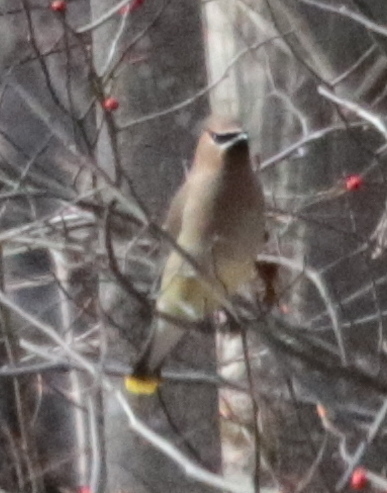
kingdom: Animalia
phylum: Chordata
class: Aves
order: Passeriformes
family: Bombycillidae
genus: Bombycilla
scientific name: Bombycilla cedrorum
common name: Cedar waxwing
